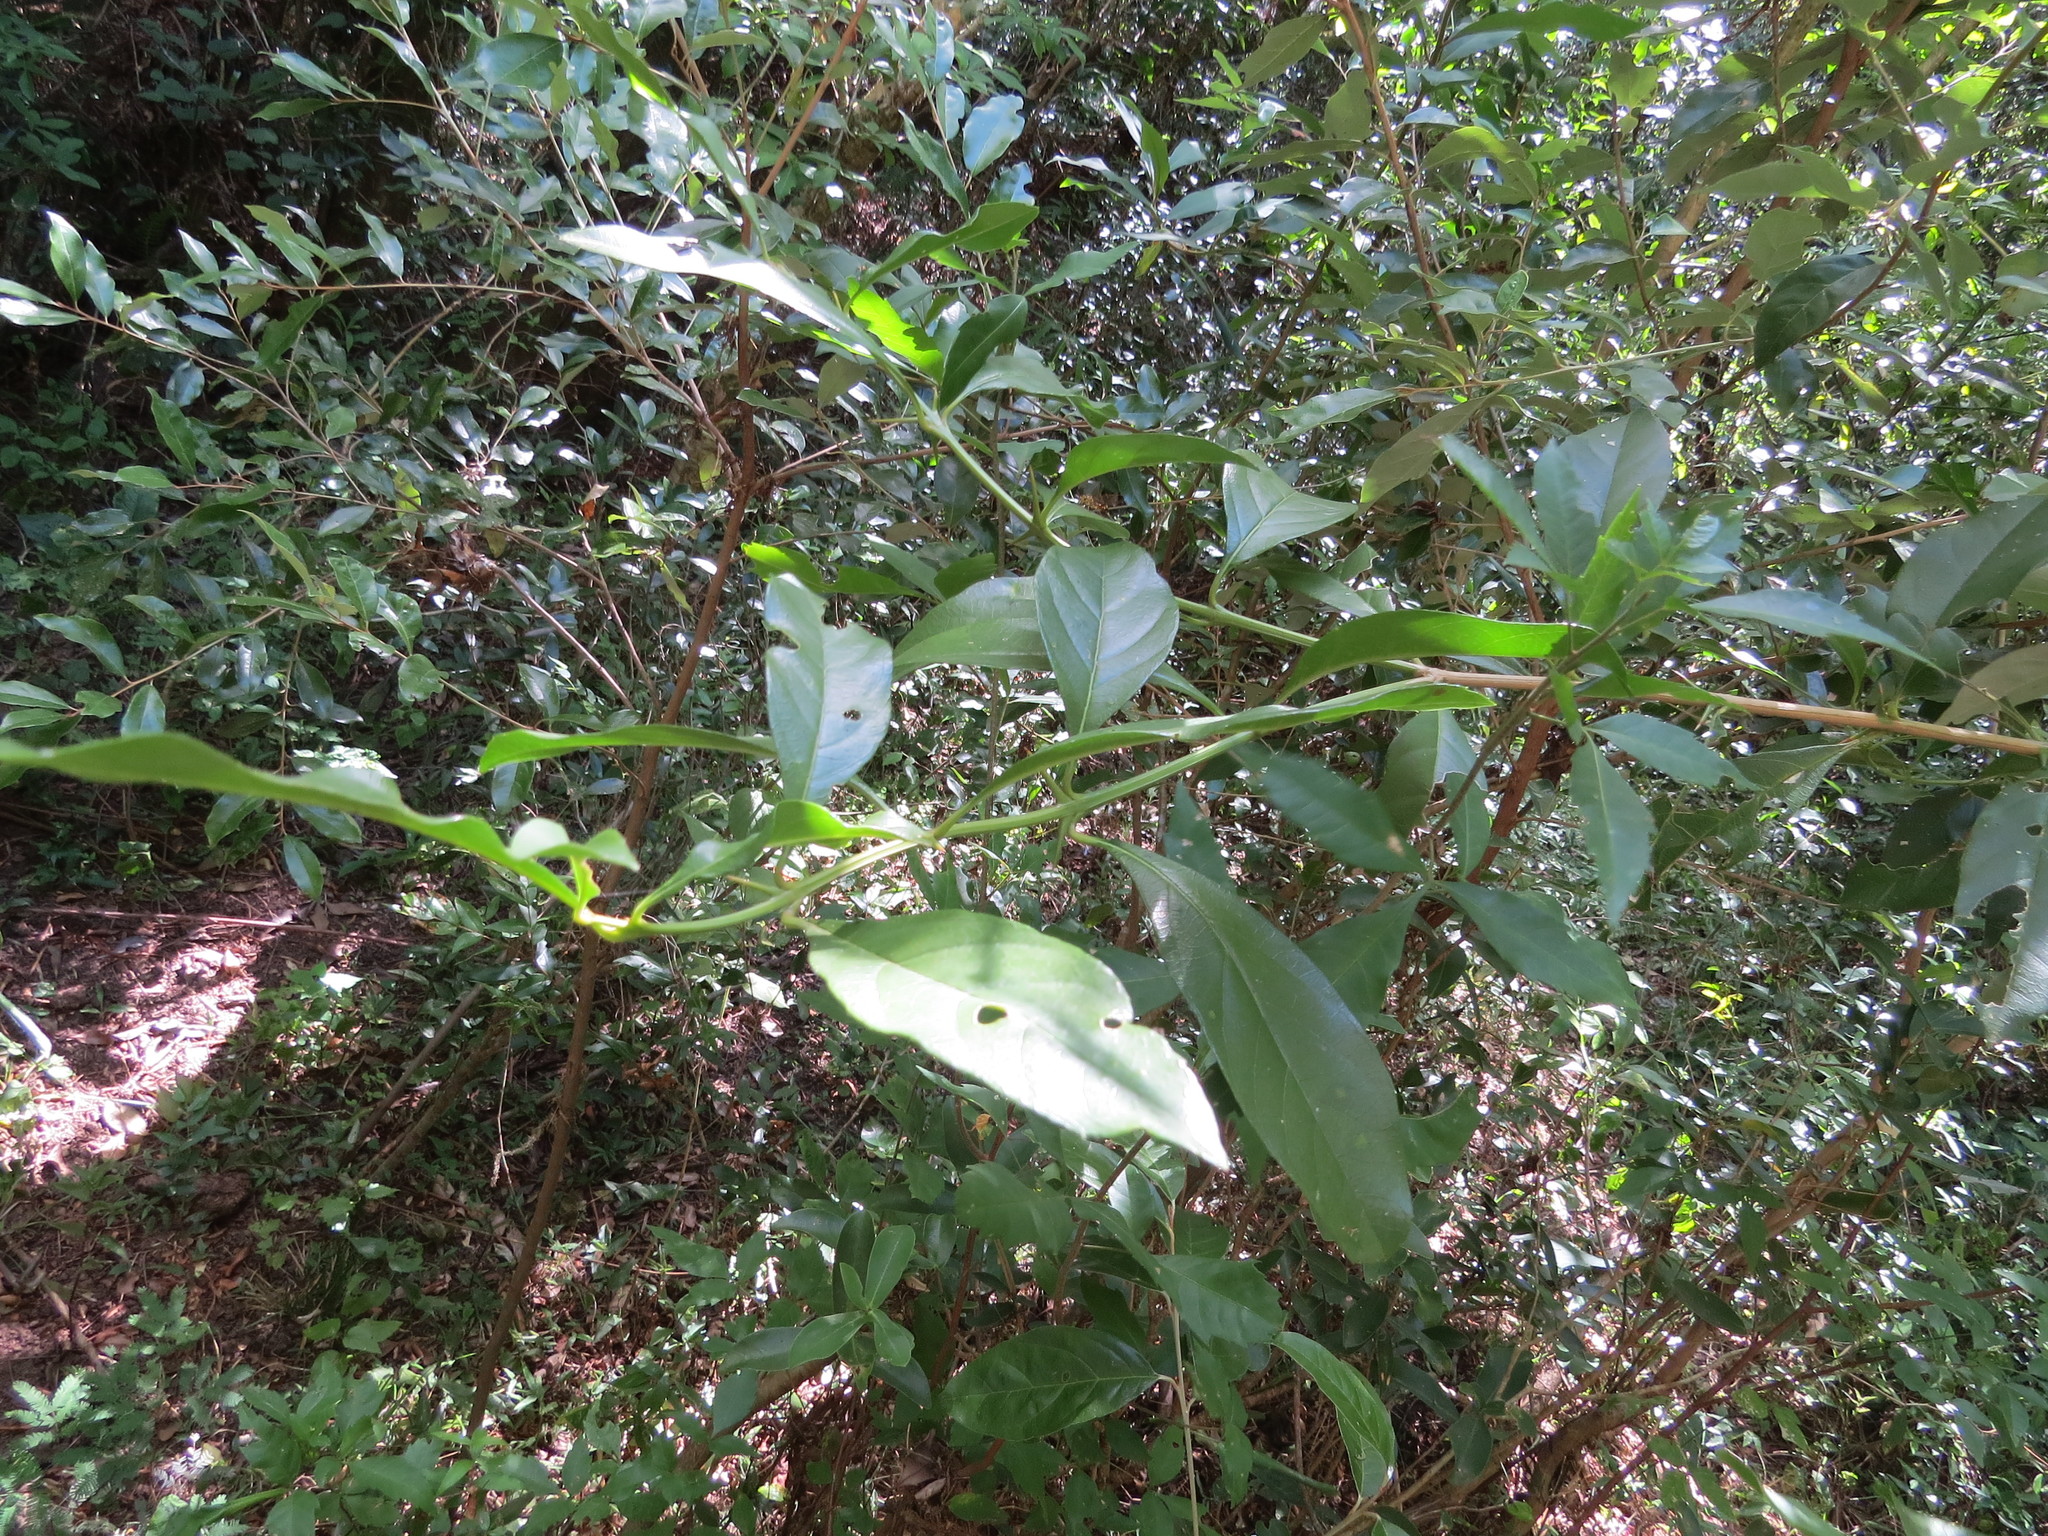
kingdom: Plantae
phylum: Tracheophyta
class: Magnoliopsida
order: Lamiales
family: Verbenaceae
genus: Citharexylum
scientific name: Citharexylum montevidense
